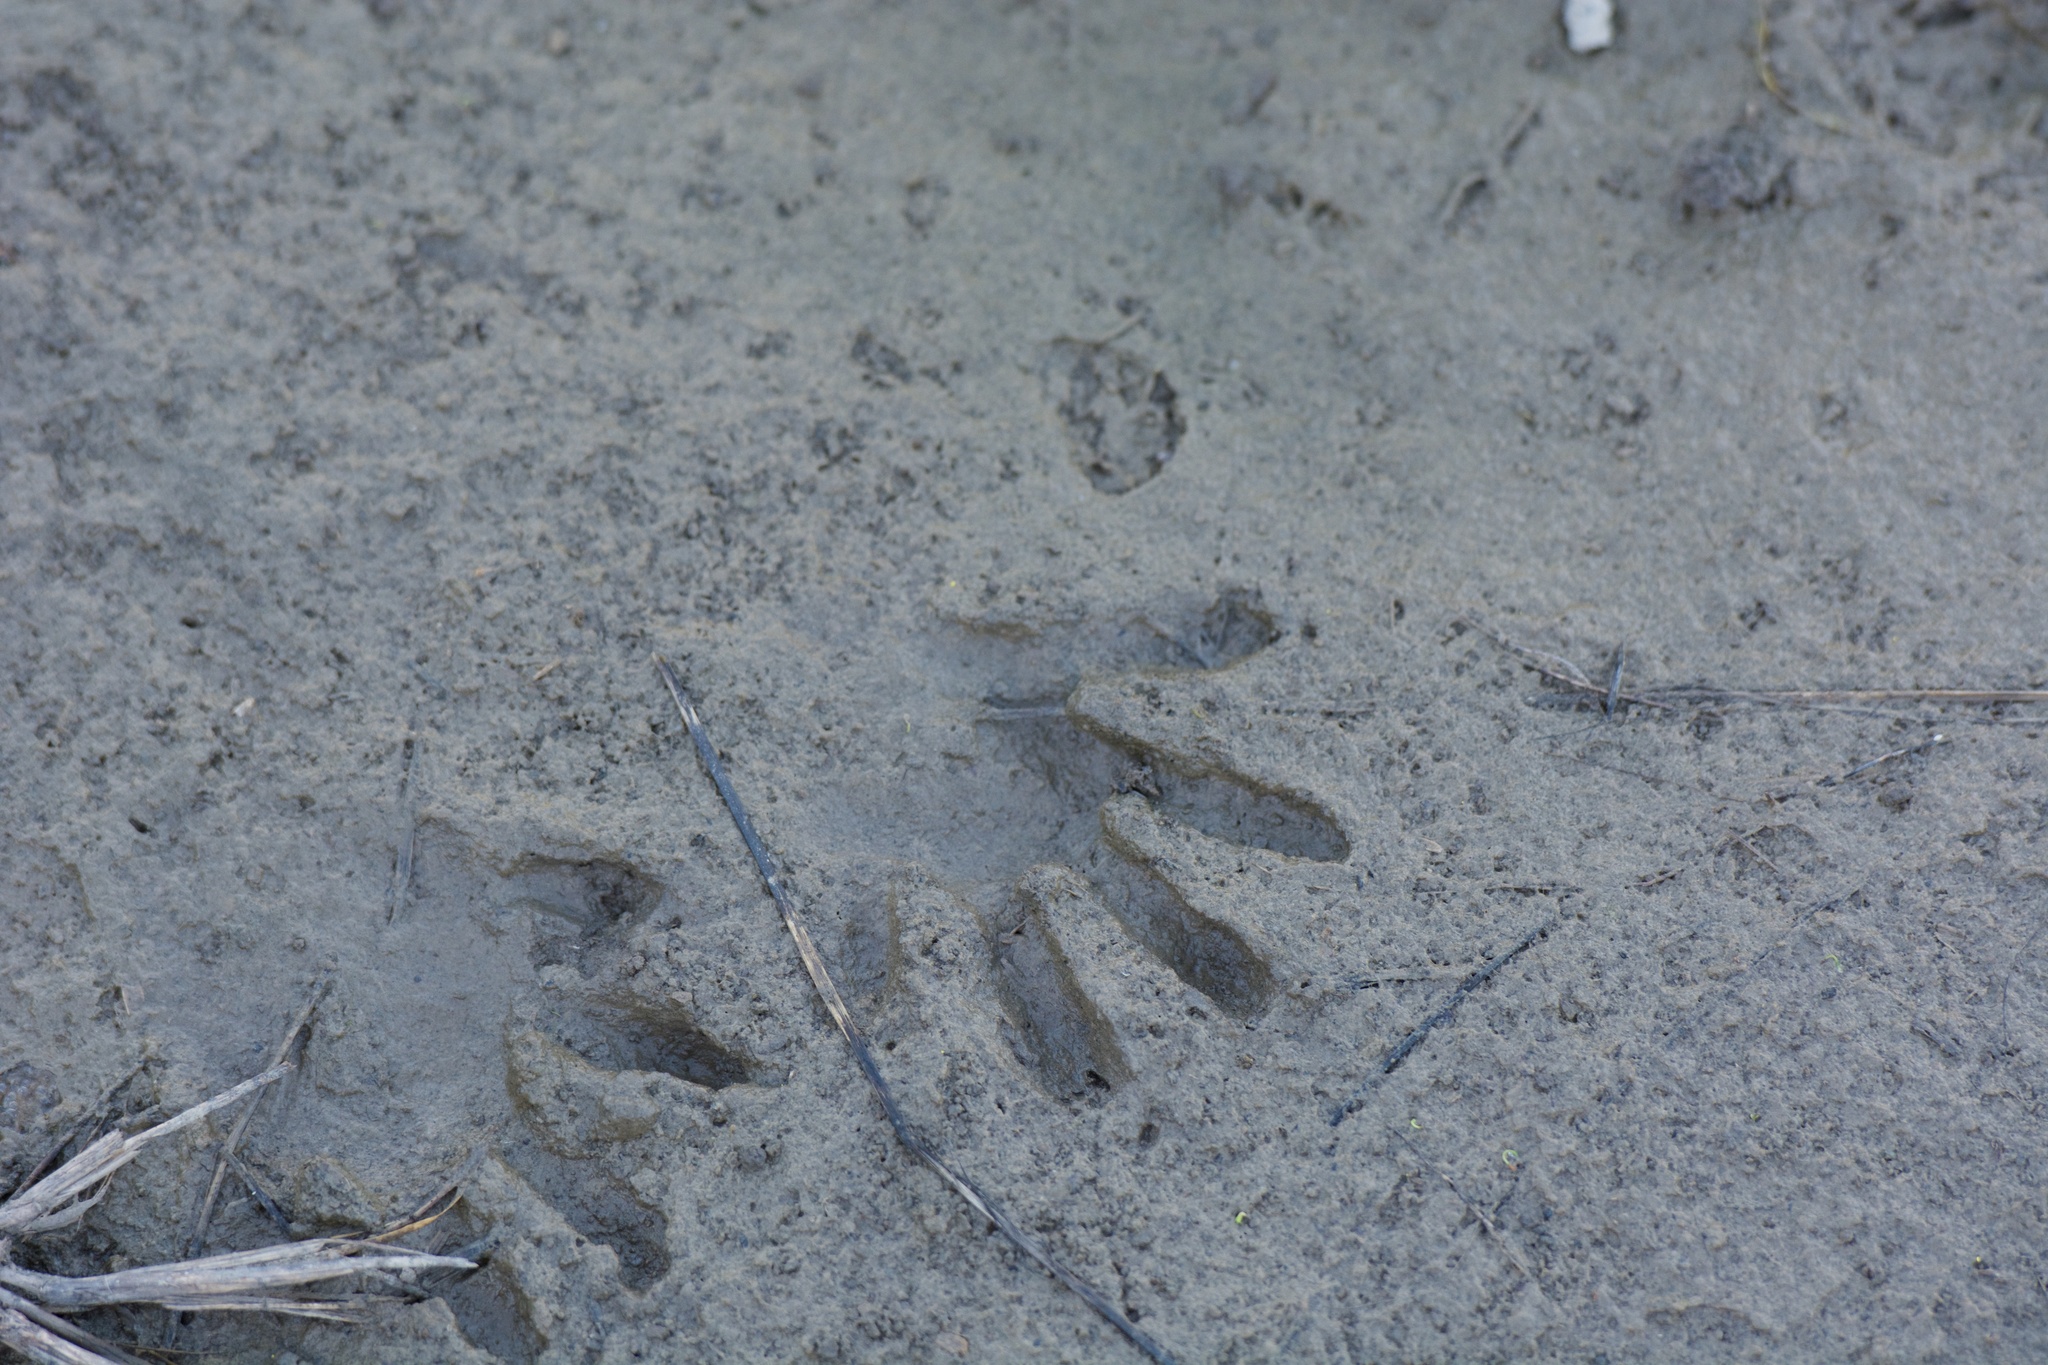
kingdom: Animalia
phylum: Chordata
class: Mammalia
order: Carnivora
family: Procyonidae
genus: Procyon
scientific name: Procyon lotor
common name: Raccoon
